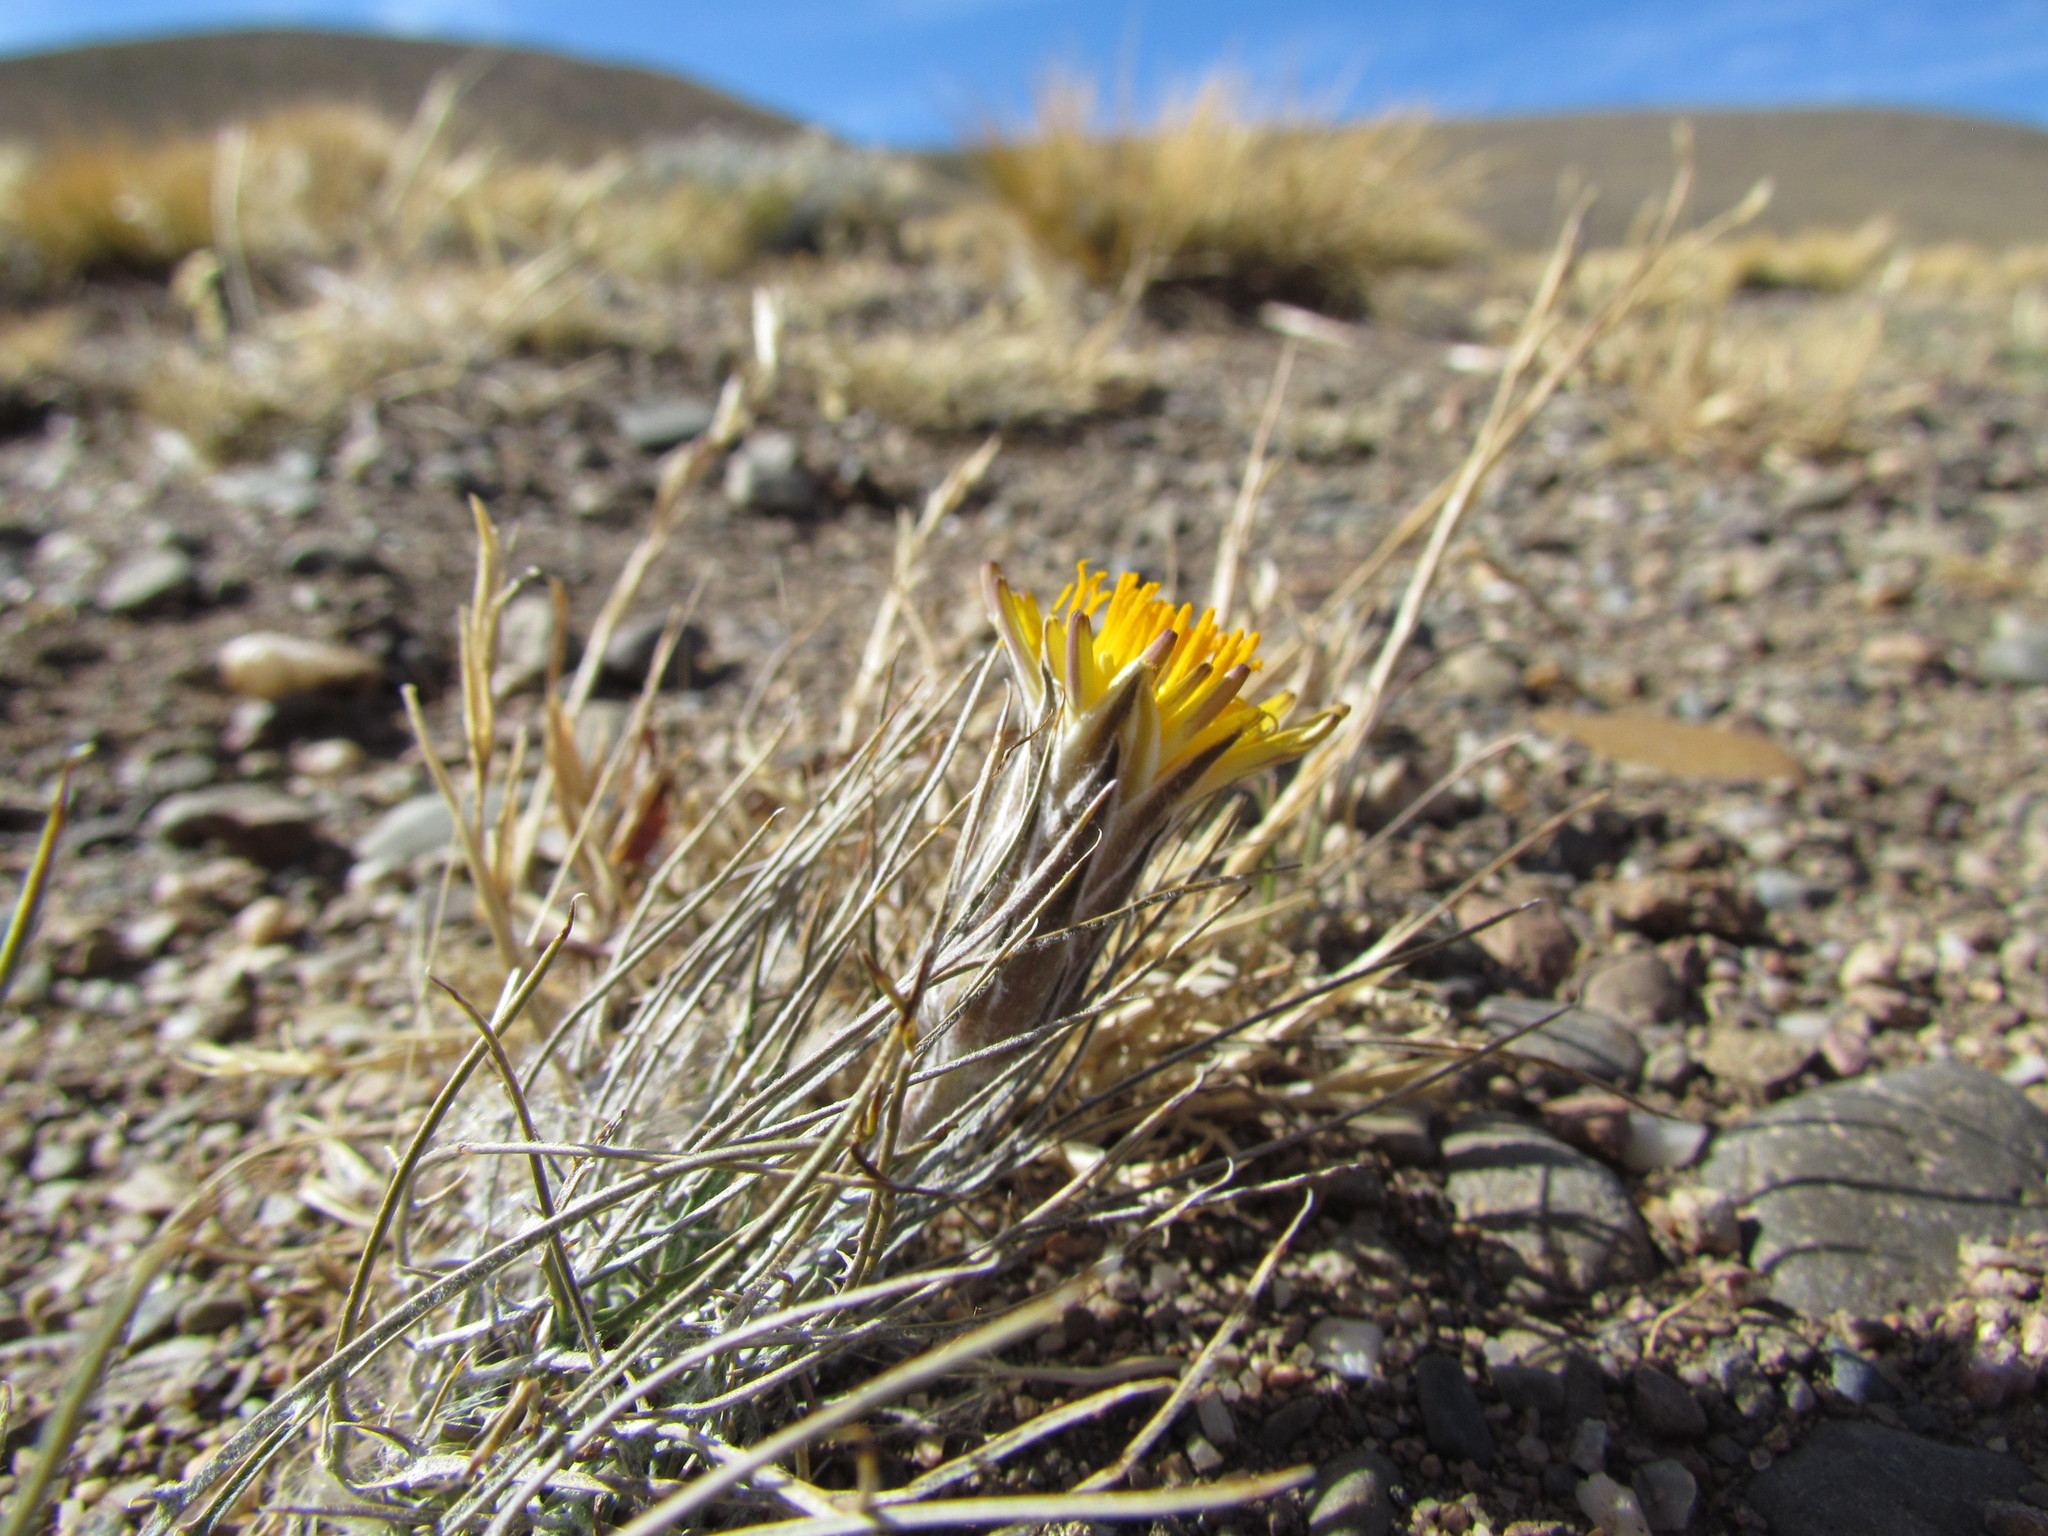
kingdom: Plantae
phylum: Tracheophyta
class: Magnoliopsida
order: Asterales
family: Asteraceae
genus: Hypochaeris
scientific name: Hypochaeris hookeri
